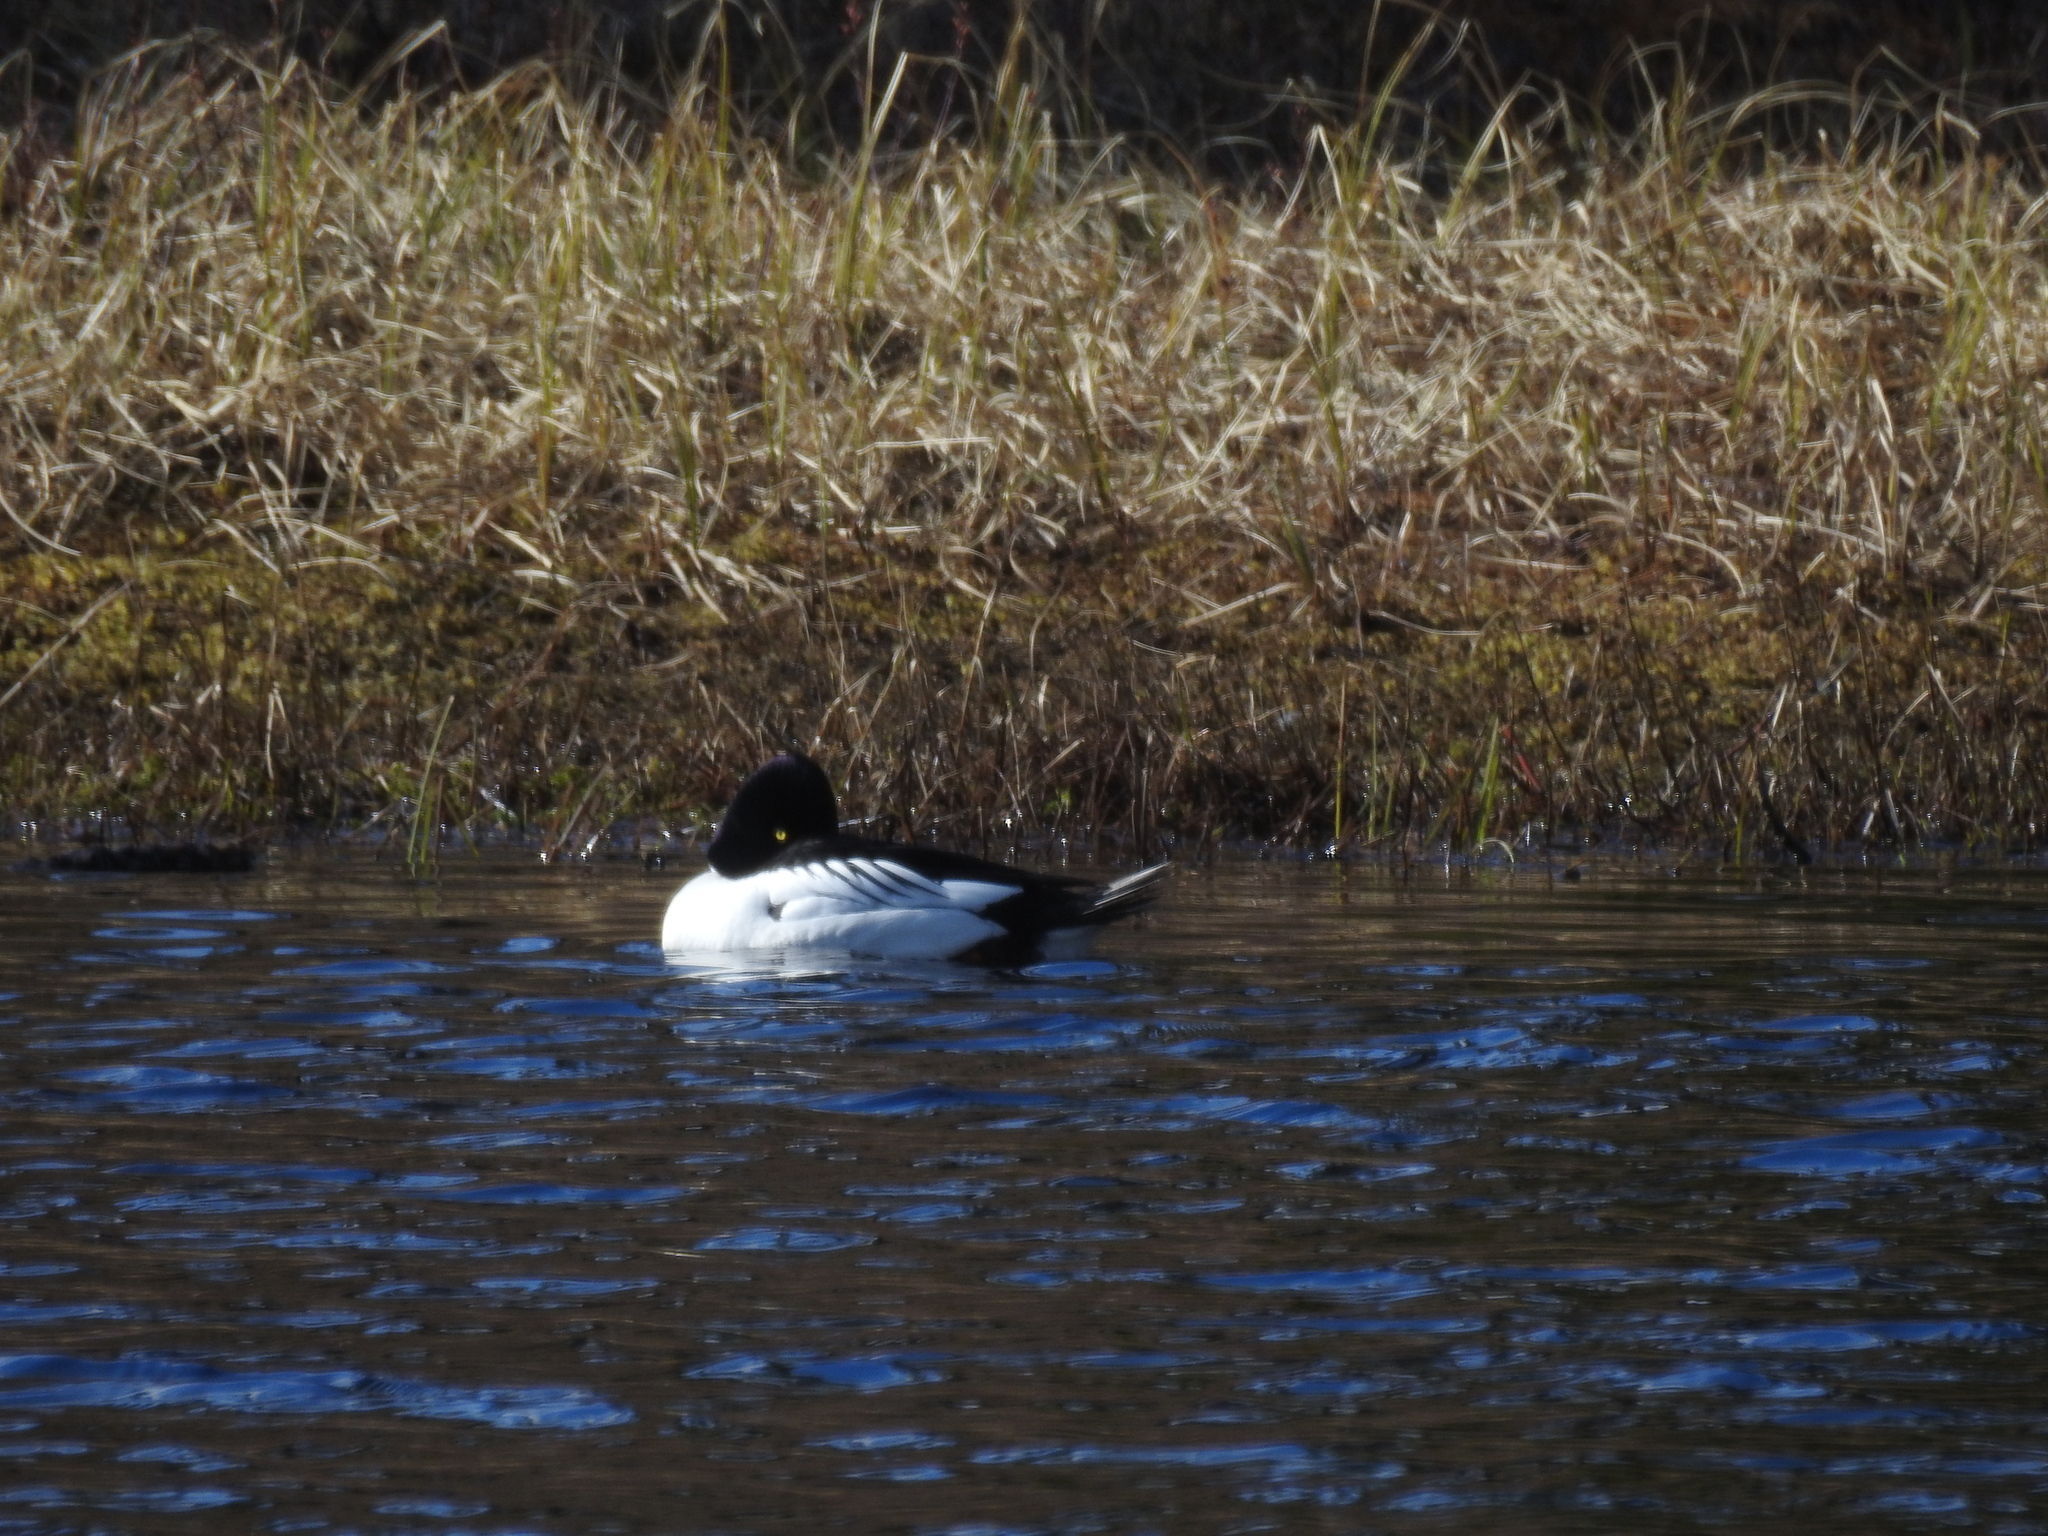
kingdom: Animalia
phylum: Chordata
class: Aves
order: Anseriformes
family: Anatidae
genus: Bucephala
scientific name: Bucephala clangula
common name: Common goldeneye
